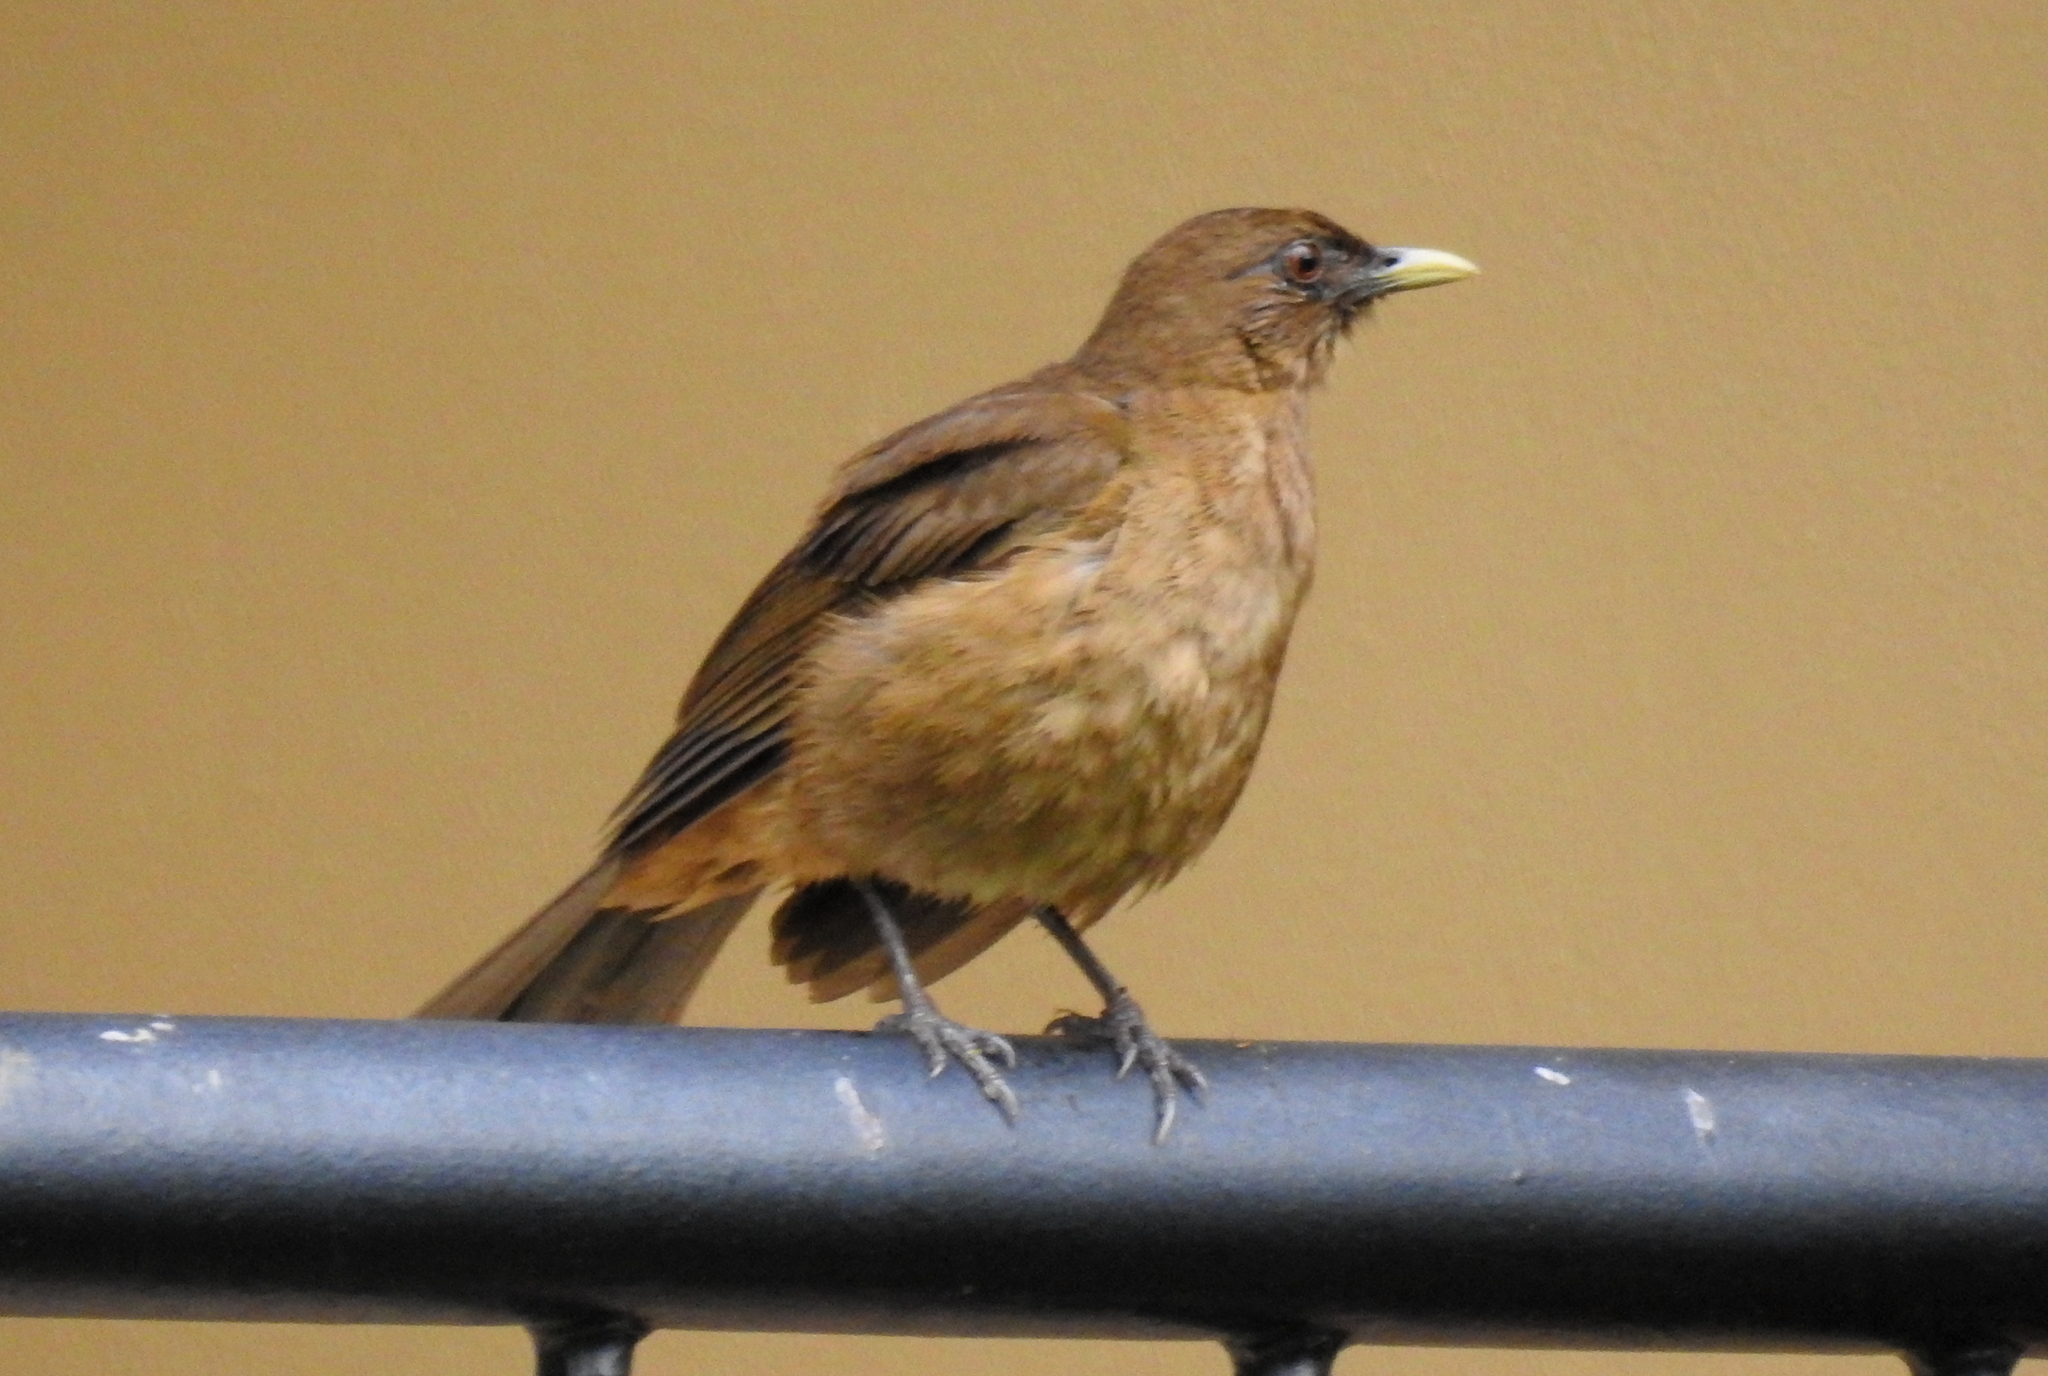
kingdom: Animalia
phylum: Chordata
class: Aves
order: Passeriformes
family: Turdidae
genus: Turdus
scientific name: Turdus grayi
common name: Clay-colored thrush
